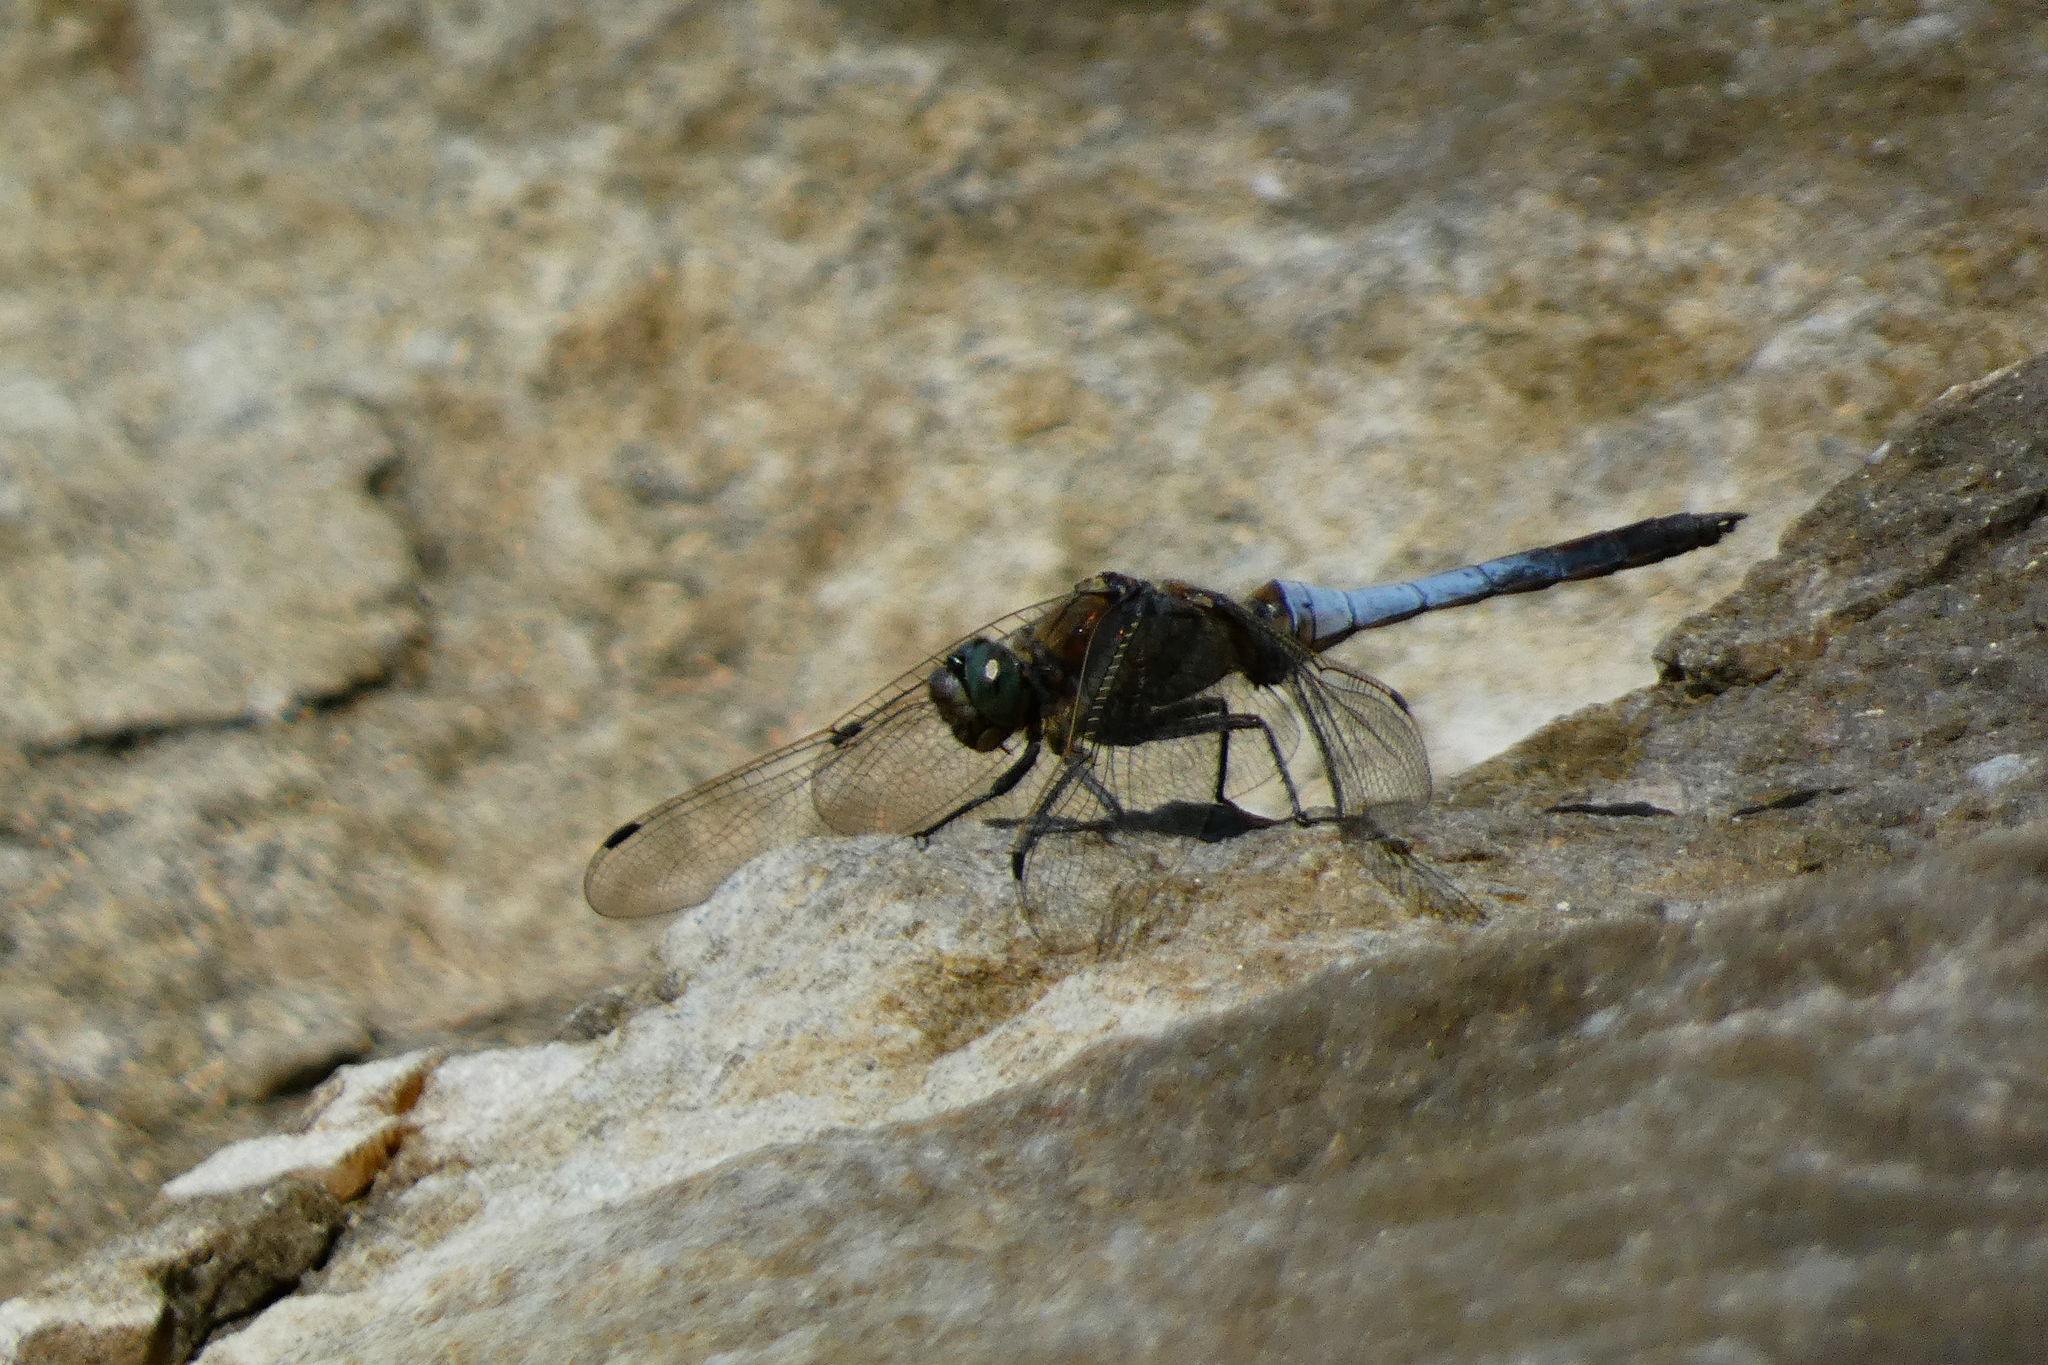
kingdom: Animalia
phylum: Arthropoda
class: Insecta
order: Odonata
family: Libellulidae
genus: Orthetrum
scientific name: Orthetrum cancellatum
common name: Black-tailed skimmer
